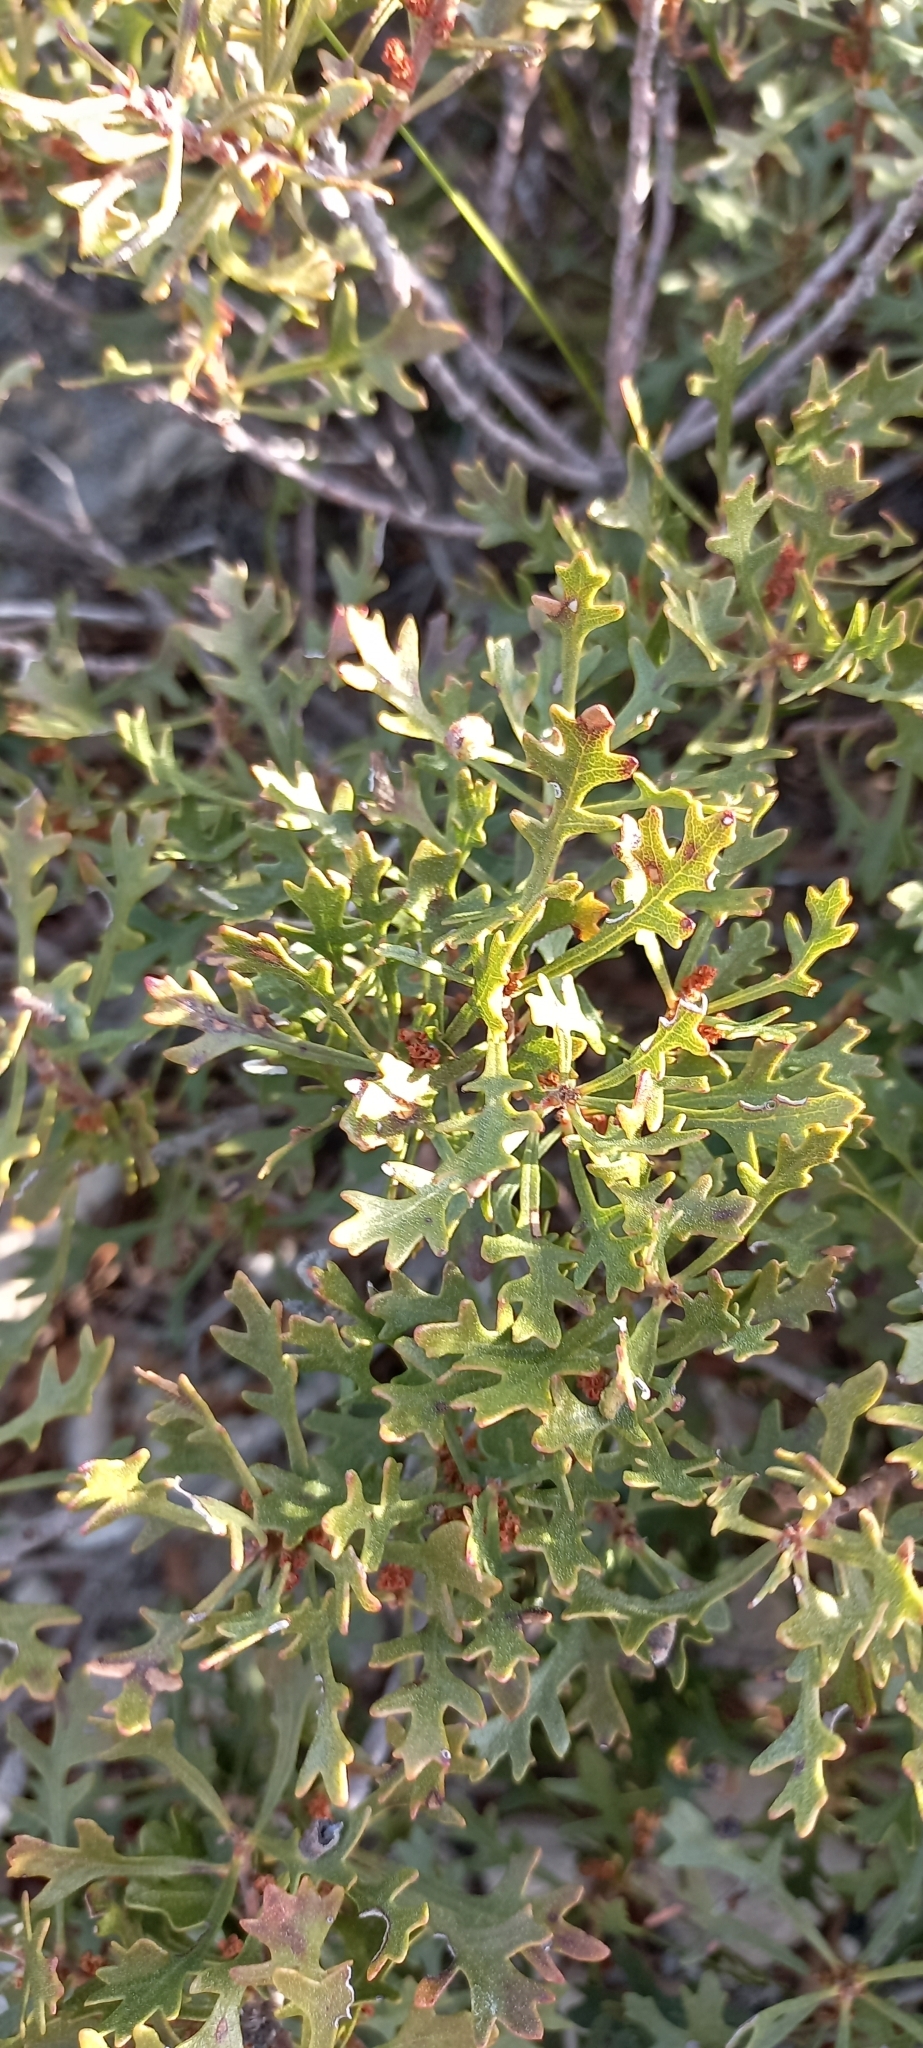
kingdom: Plantae
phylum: Tracheophyta
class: Magnoliopsida
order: Fagales
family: Myricaceae
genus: Morella
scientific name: Morella quercifolia
